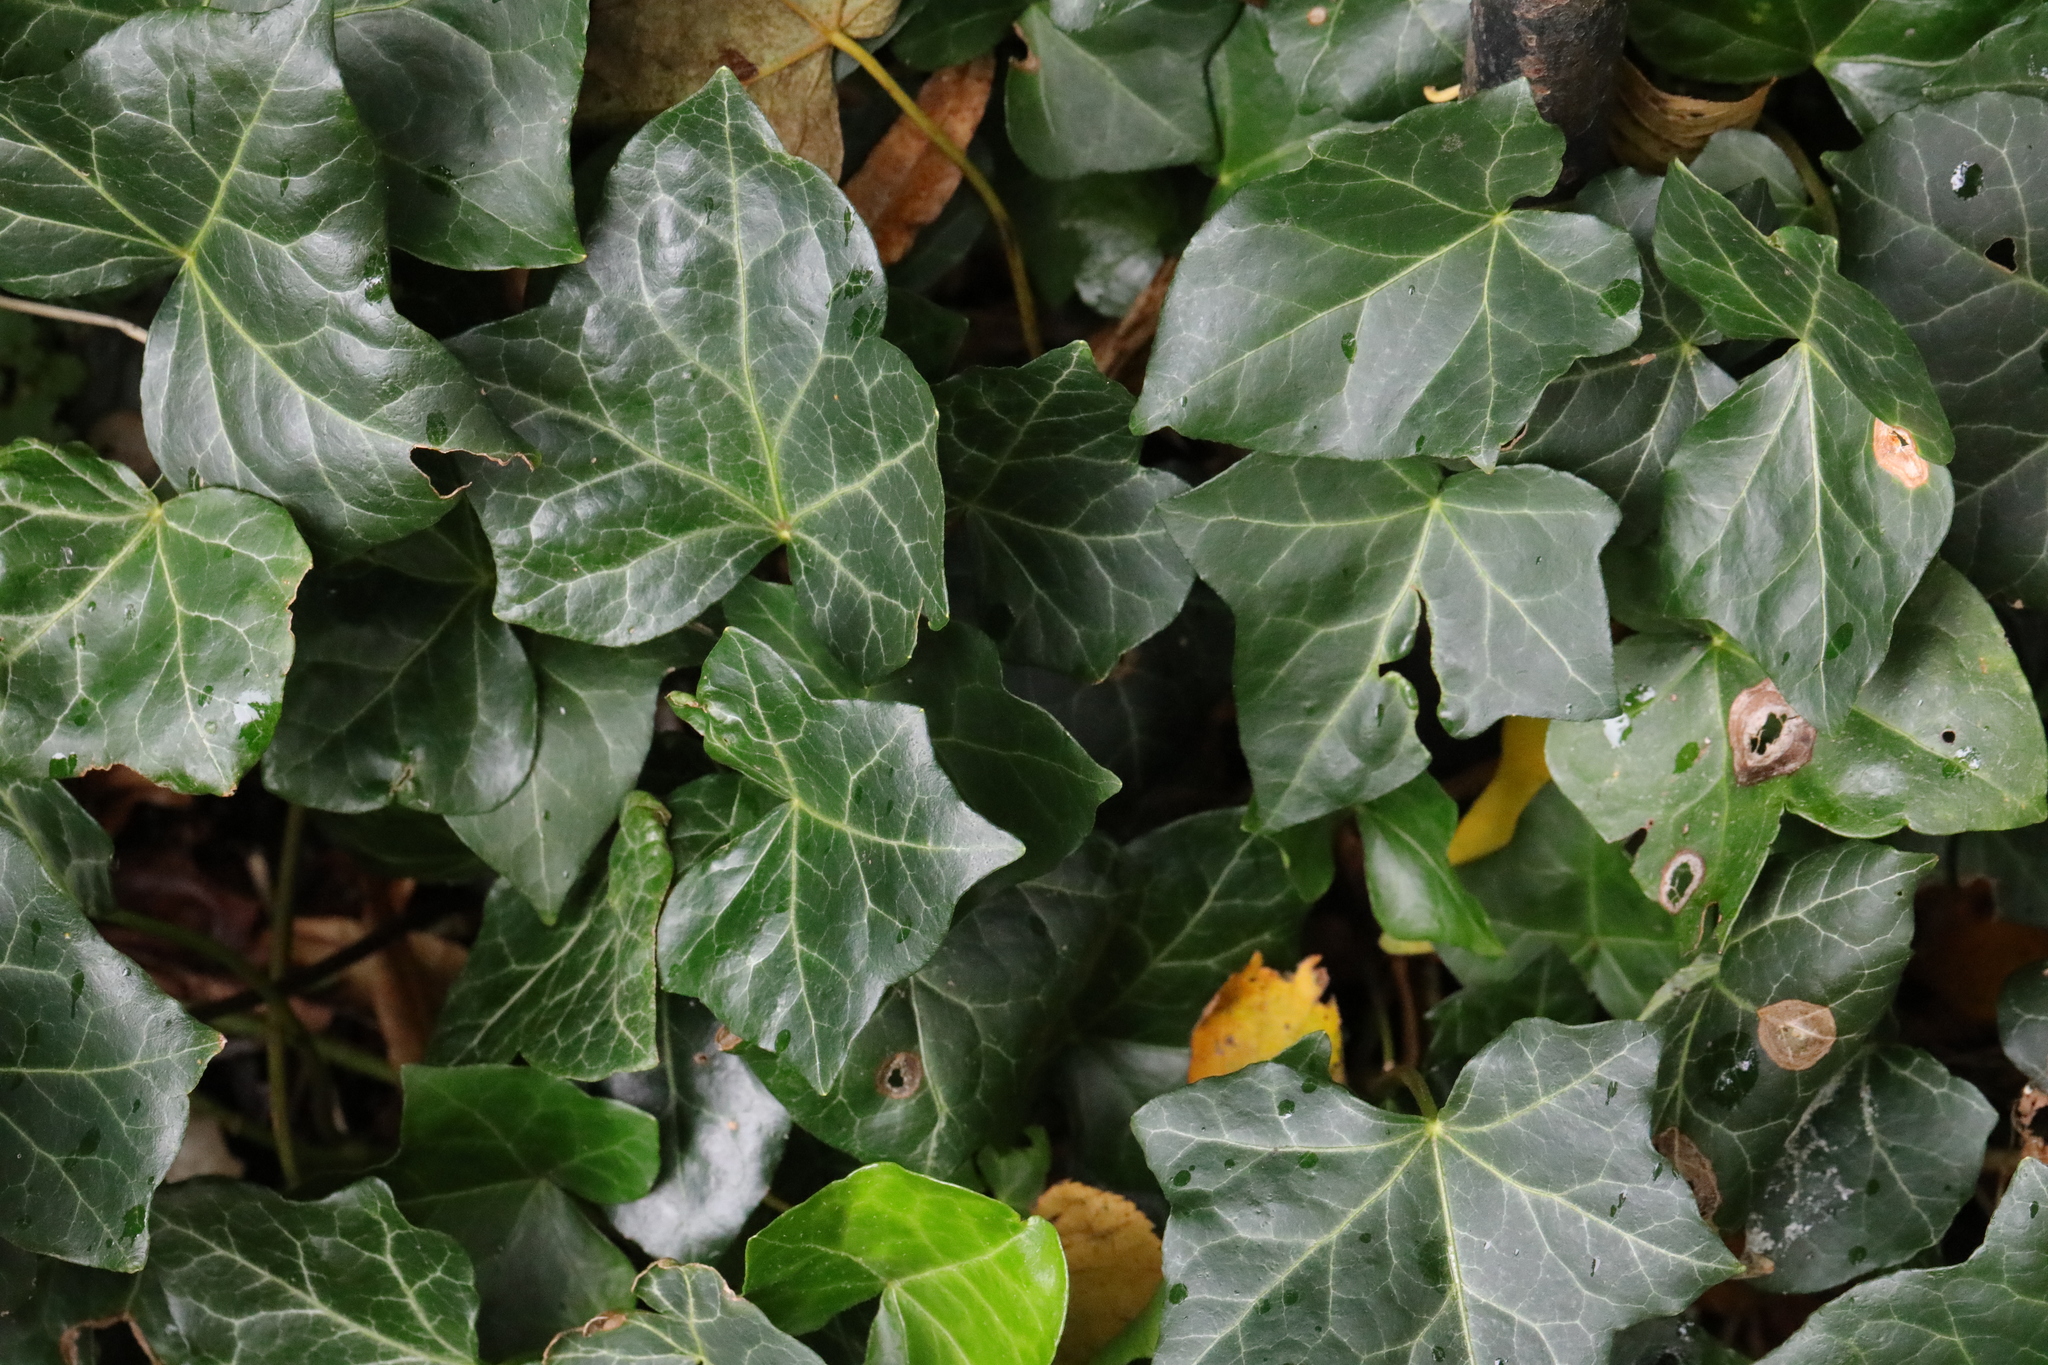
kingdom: Plantae
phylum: Tracheophyta
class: Magnoliopsida
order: Apiales
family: Araliaceae
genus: Hedera
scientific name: Hedera helix
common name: Ivy
